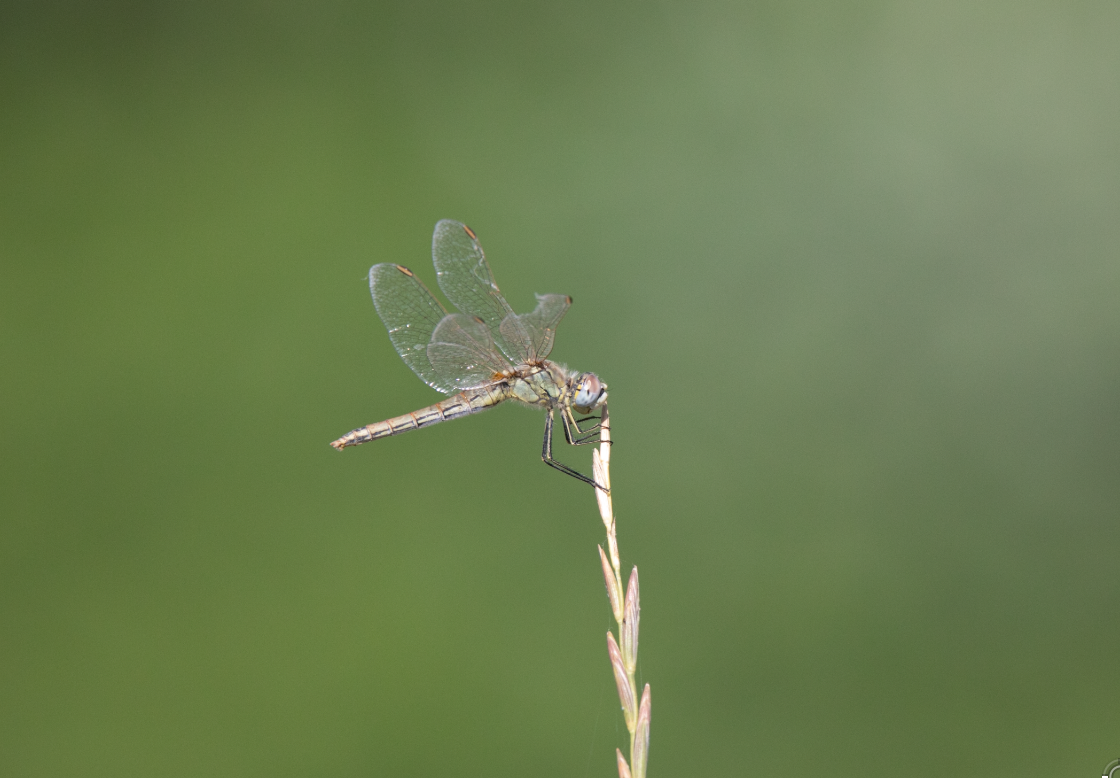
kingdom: Animalia
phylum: Arthropoda
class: Insecta
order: Odonata
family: Libellulidae
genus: Sympetrum
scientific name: Sympetrum fonscolombii
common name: Red-veined darter
